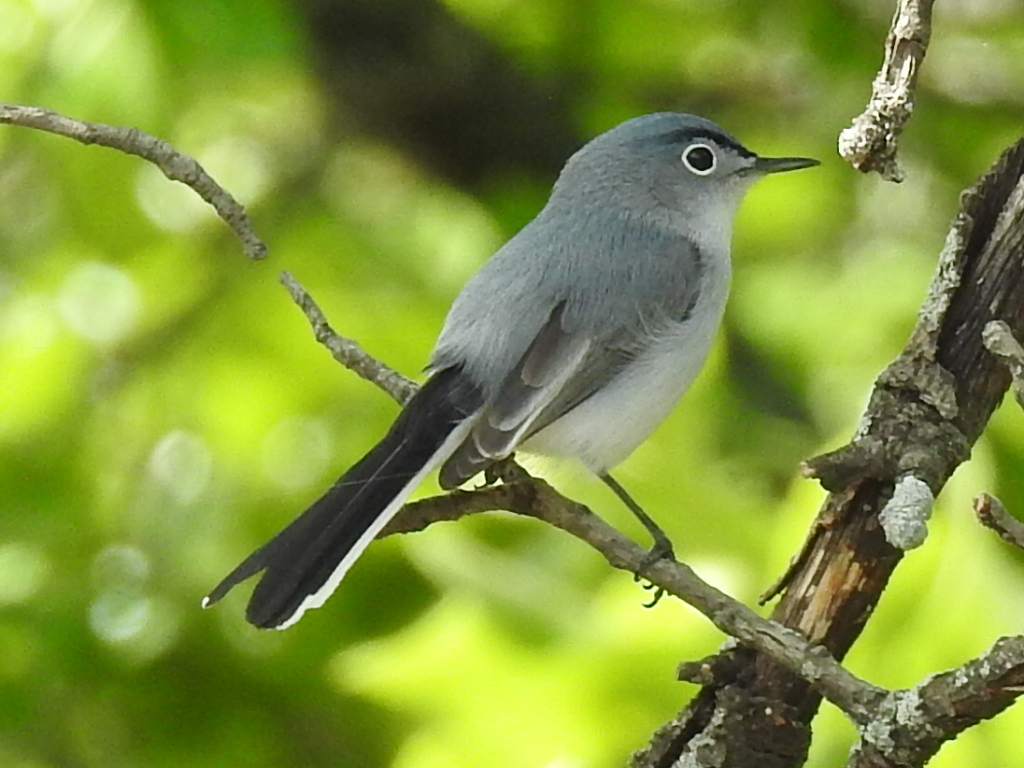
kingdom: Animalia
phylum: Chordata
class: Aves
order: Passeriformes
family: Polioptilidae
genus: Polioptila
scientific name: Polioptila caerulea
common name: Blue-gray gnatcatcher
